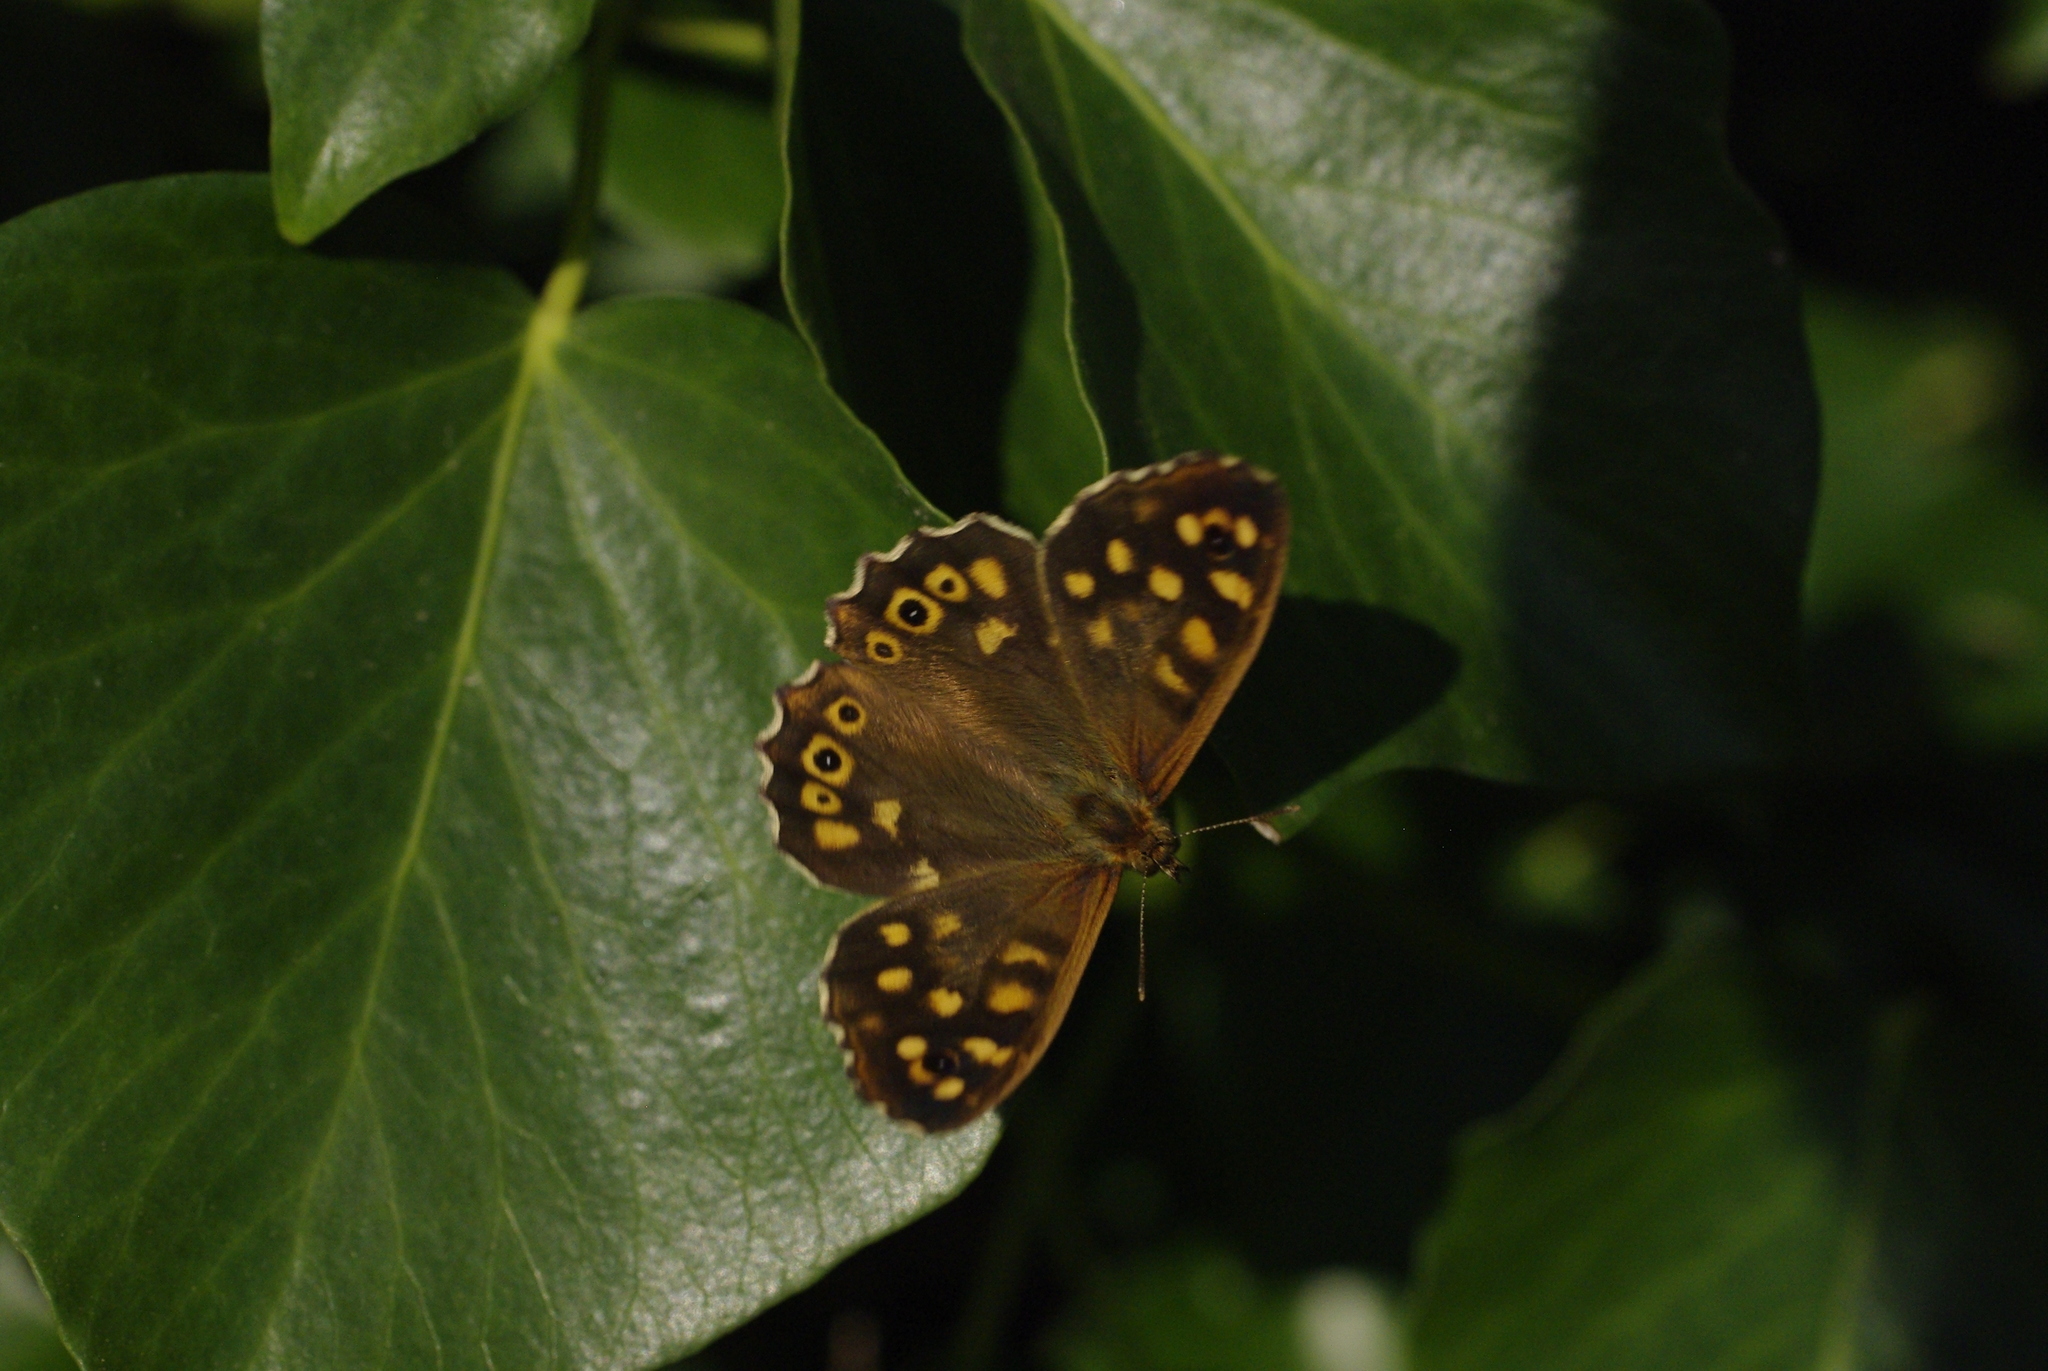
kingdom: Animalia
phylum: Arthropoda
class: Insecta
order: Lepidoptera
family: Nymphalidae
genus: Pararge
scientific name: Pararge aegeria
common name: Speckled wood
